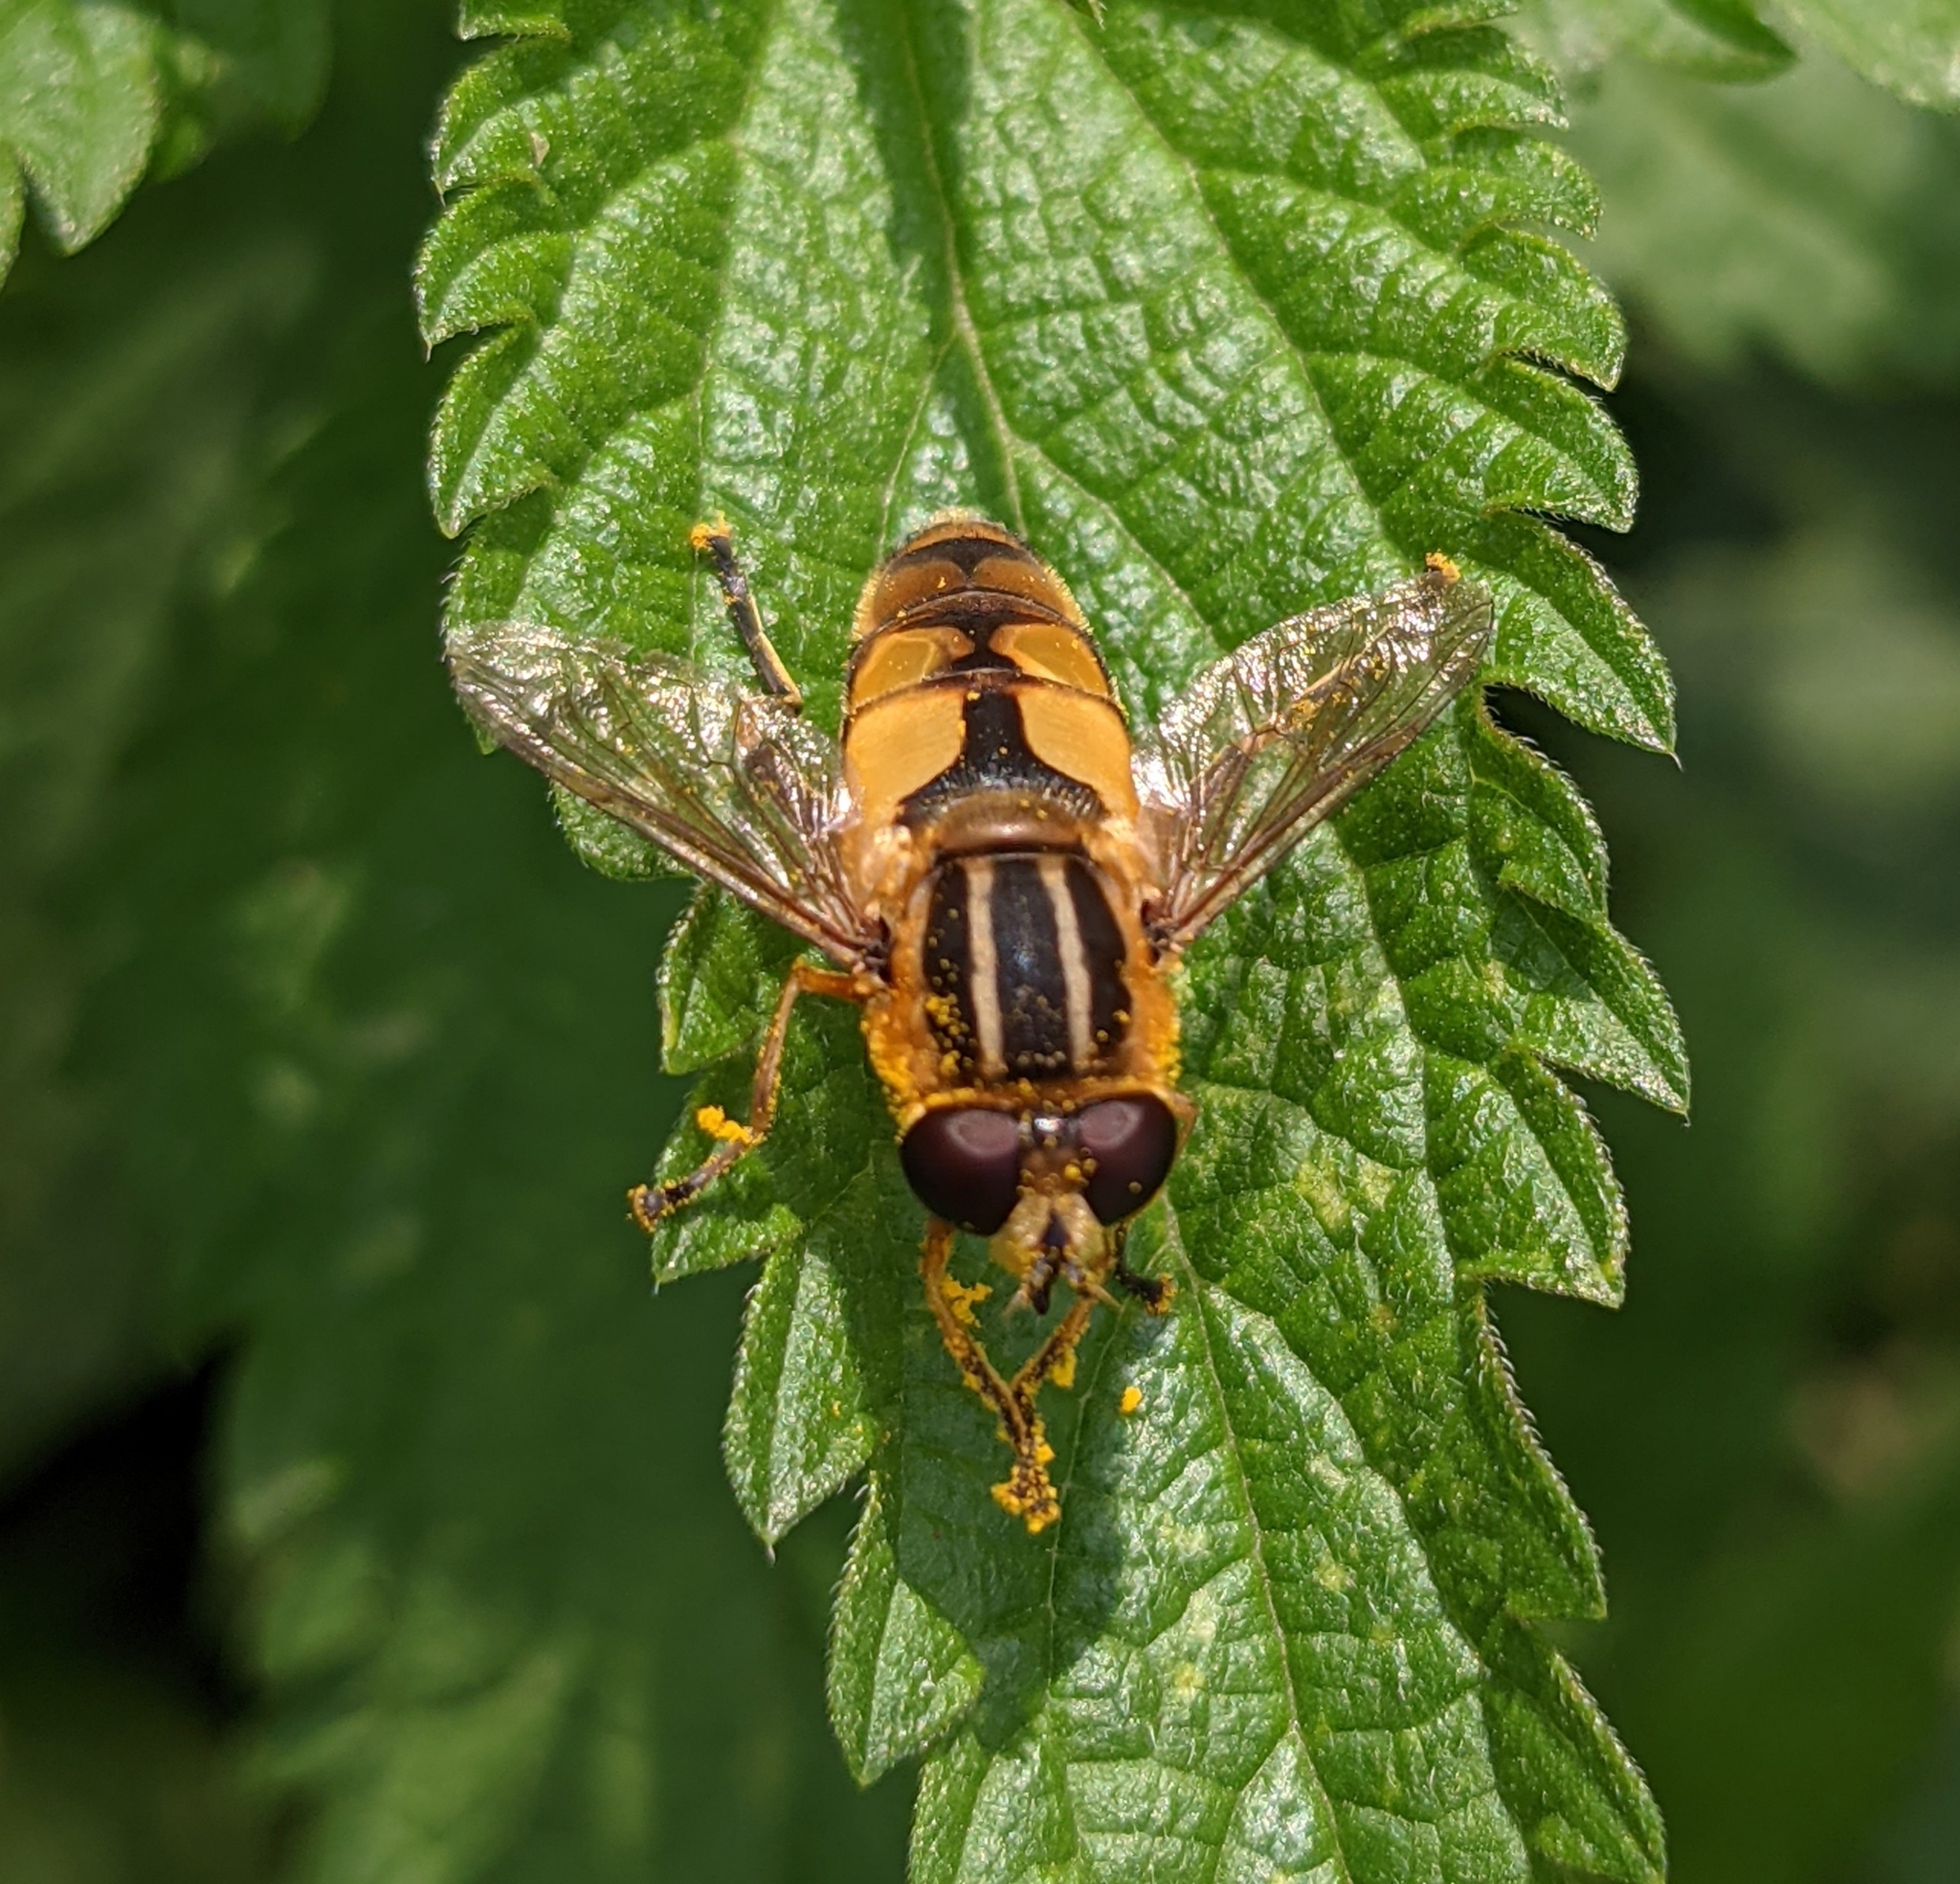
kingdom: Animalia
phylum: Arthropoda
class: Insecta
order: Diptera
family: Syrphidae
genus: Helophilus
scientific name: Helophilus hybridus
